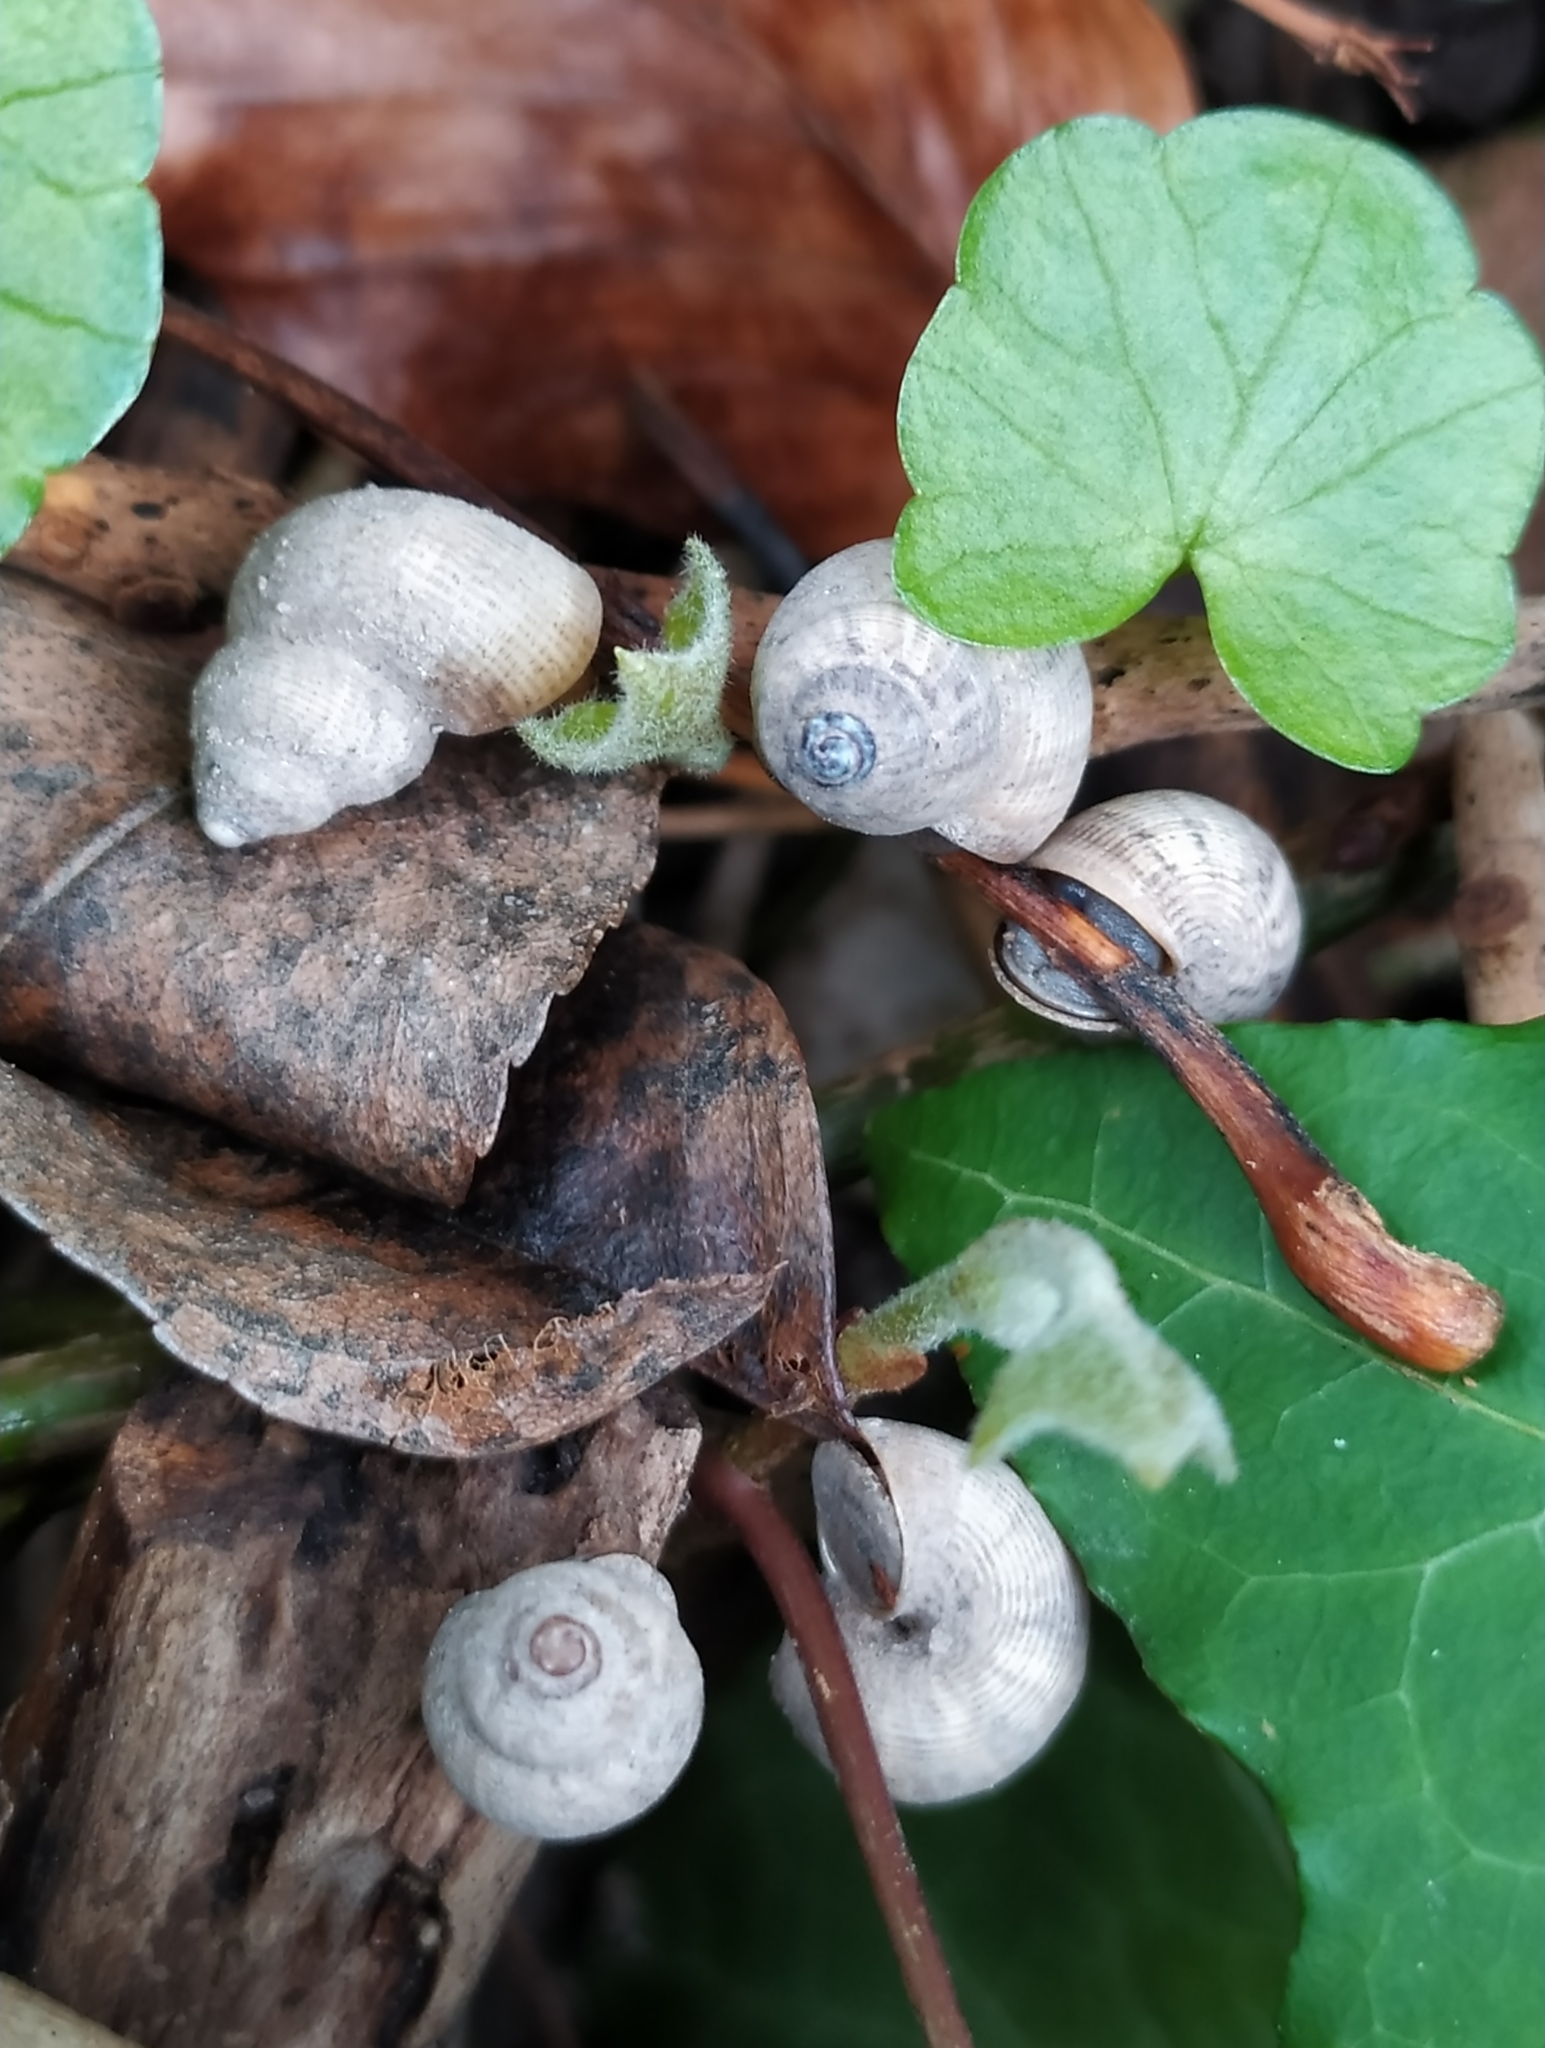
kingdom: Animalia
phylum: Mollusca
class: Gastropoda
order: Littorinimorpha
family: Pomatiidae
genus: Pomatias
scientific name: Pomatias elegans
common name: Red-mouthed snail
